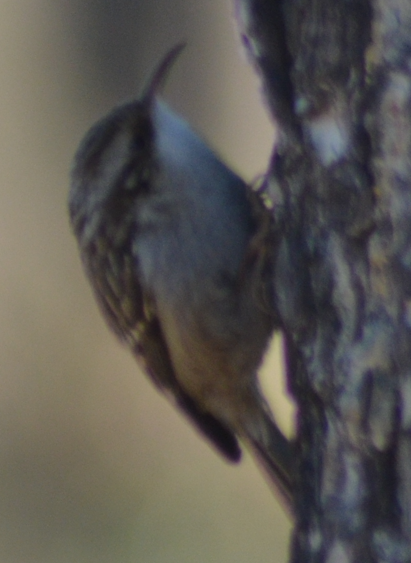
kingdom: Animalia
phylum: Chordata
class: Aves
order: Passeriformes
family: Certhiidae
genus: Certhia
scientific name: Certhia brachydactyla
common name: Short-toed treecreeper
